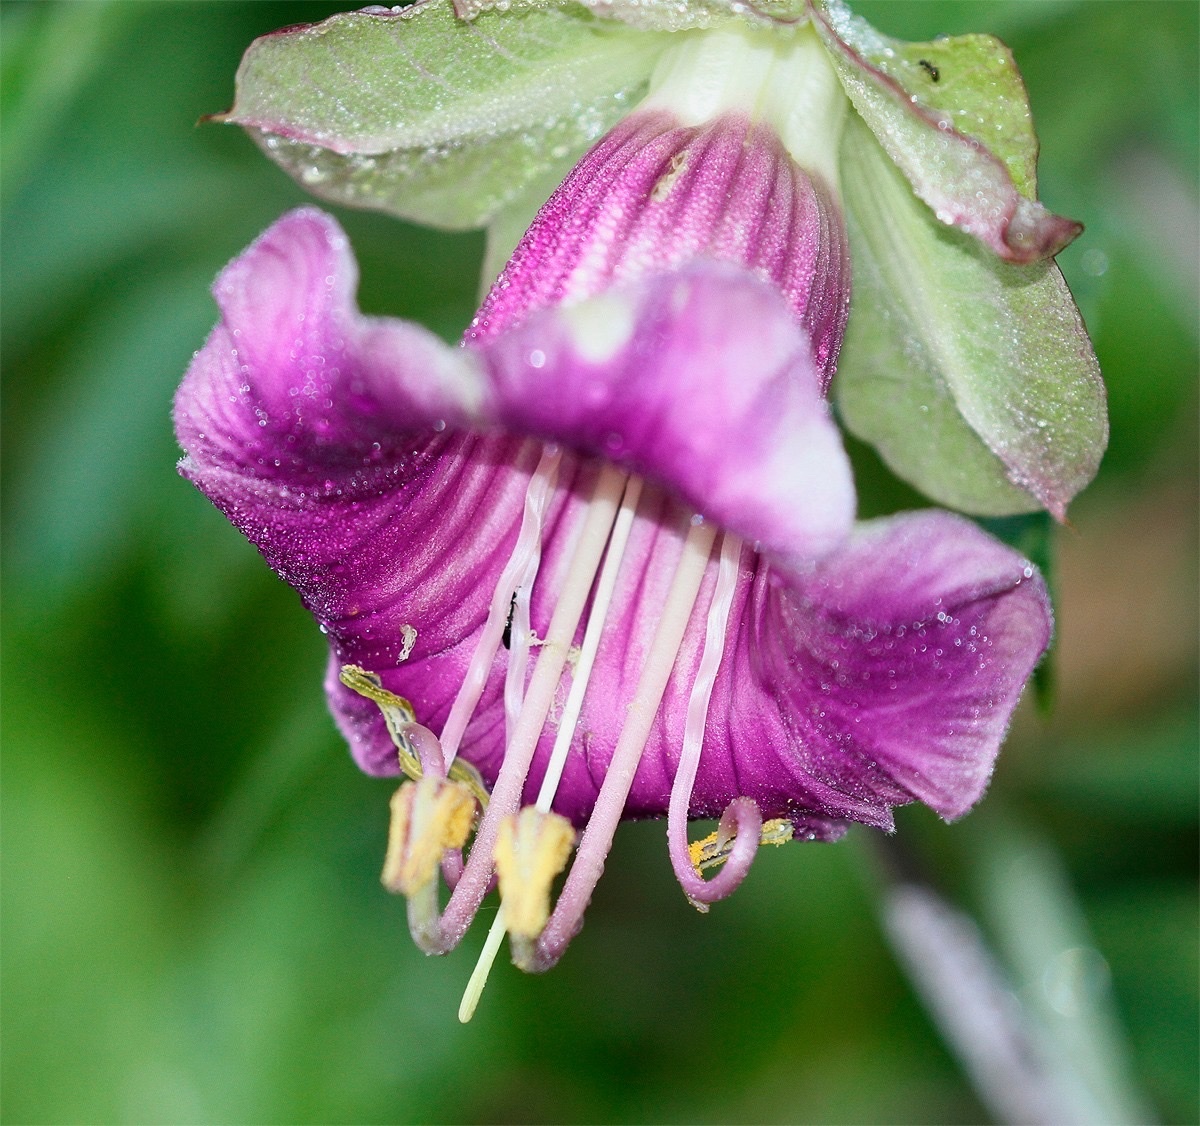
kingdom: Plantae
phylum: Tracheophyta
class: Magnoliopsida
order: Ericales
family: Polemoniaceae
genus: Cobaea
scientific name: Cobaea scandens
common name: Cup-and-saucer-vine
